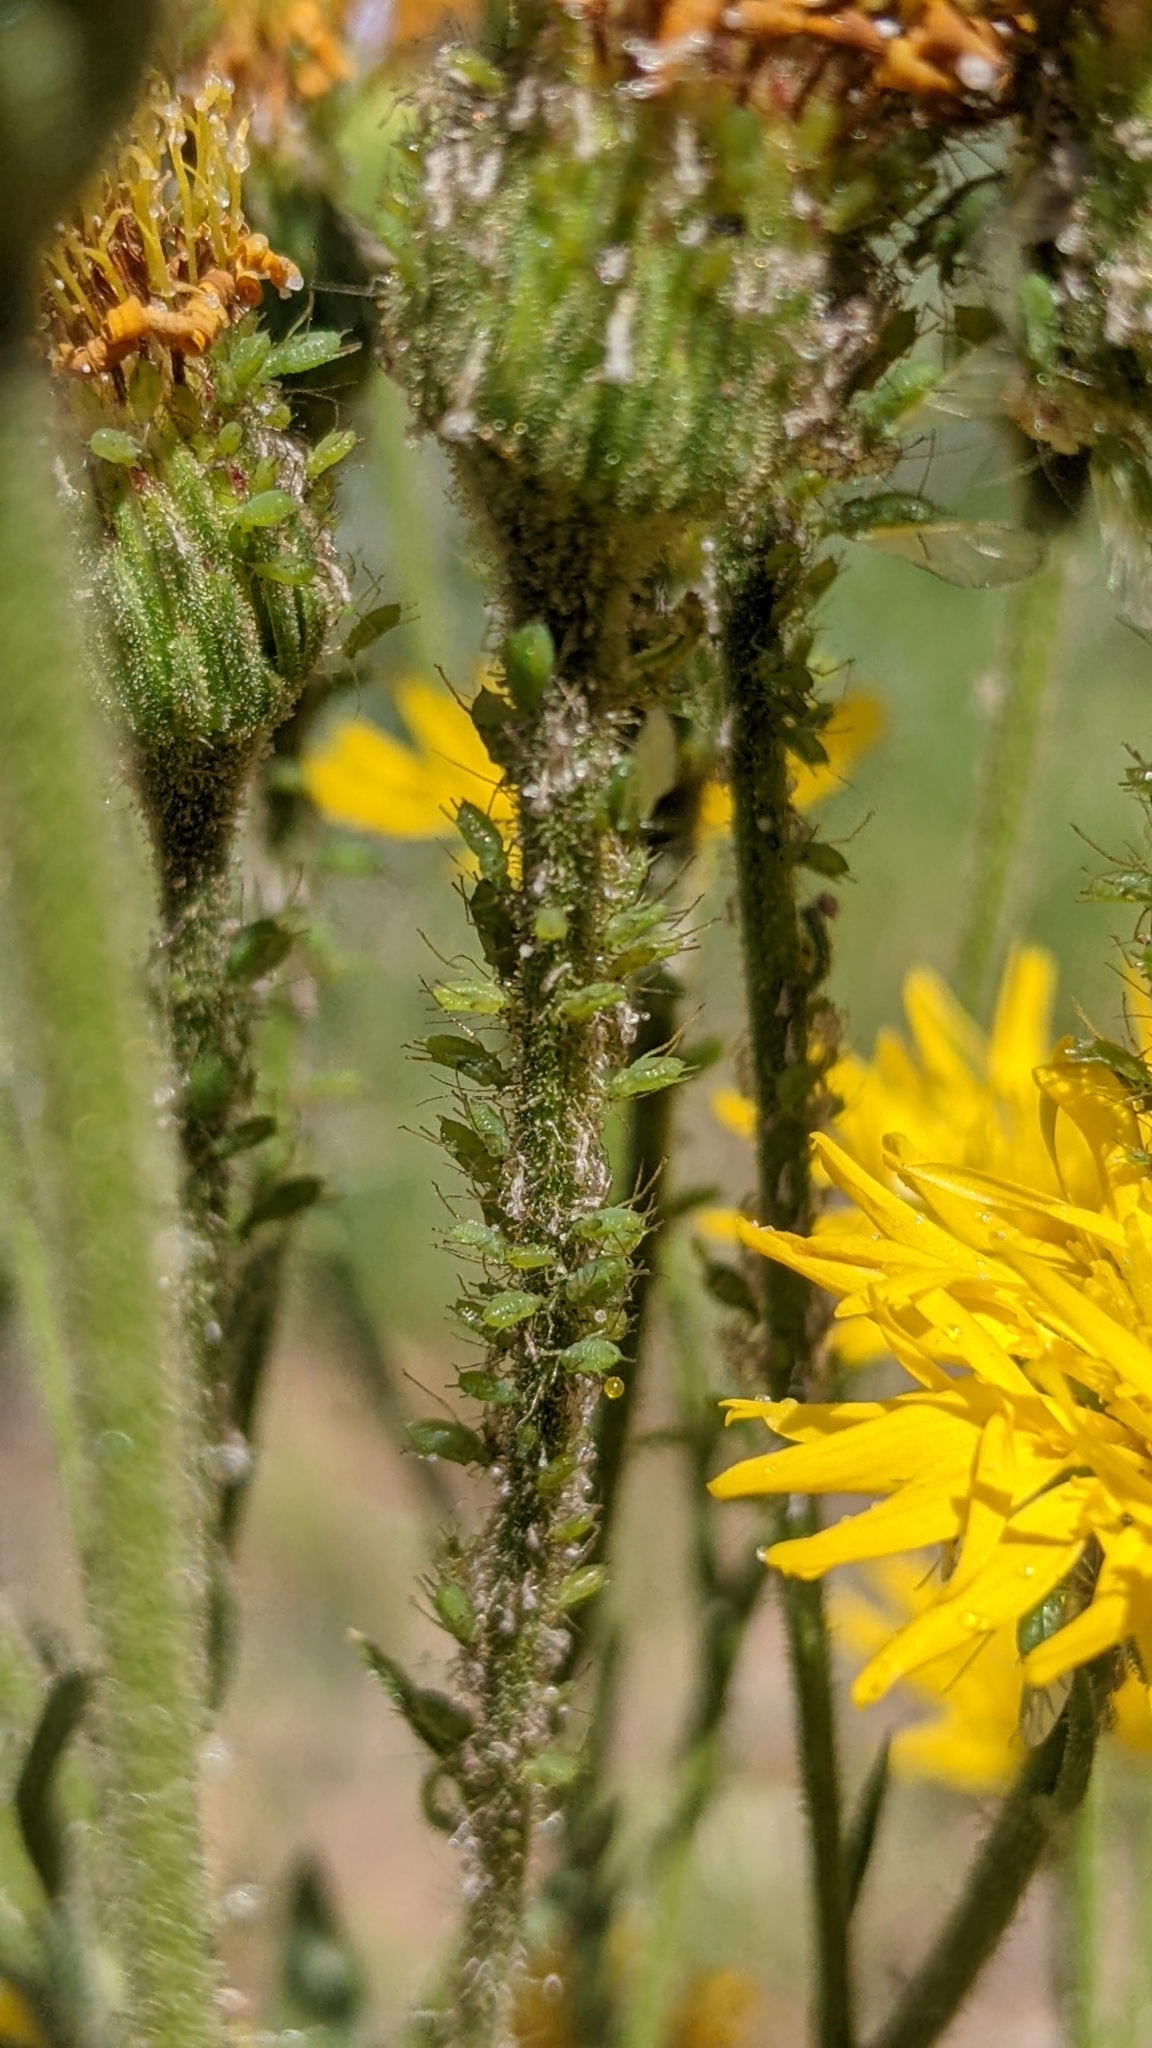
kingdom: Plantae
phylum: Tracheophyta
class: Magnoliopsida
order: Asterales
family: Asteraceae
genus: Heterotheca
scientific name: Heterotheca grandiflora
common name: Telegraphweed
